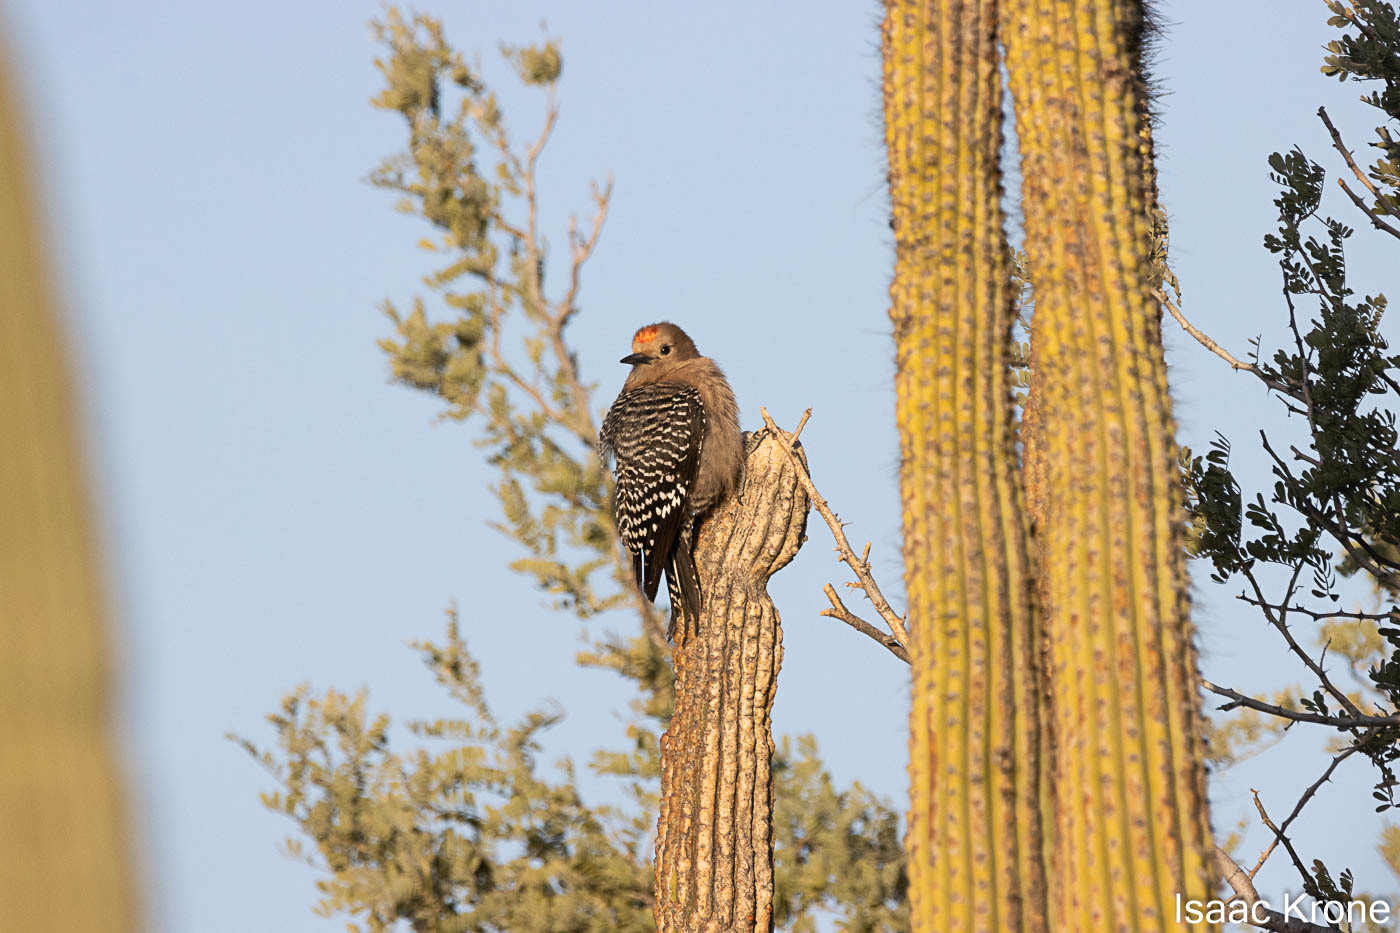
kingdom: Animalia
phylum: Chordata
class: Aves
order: Piciformes
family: Picidae
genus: Melanerpes
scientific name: Melanerpes uropygialis
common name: Gila woodpecker
